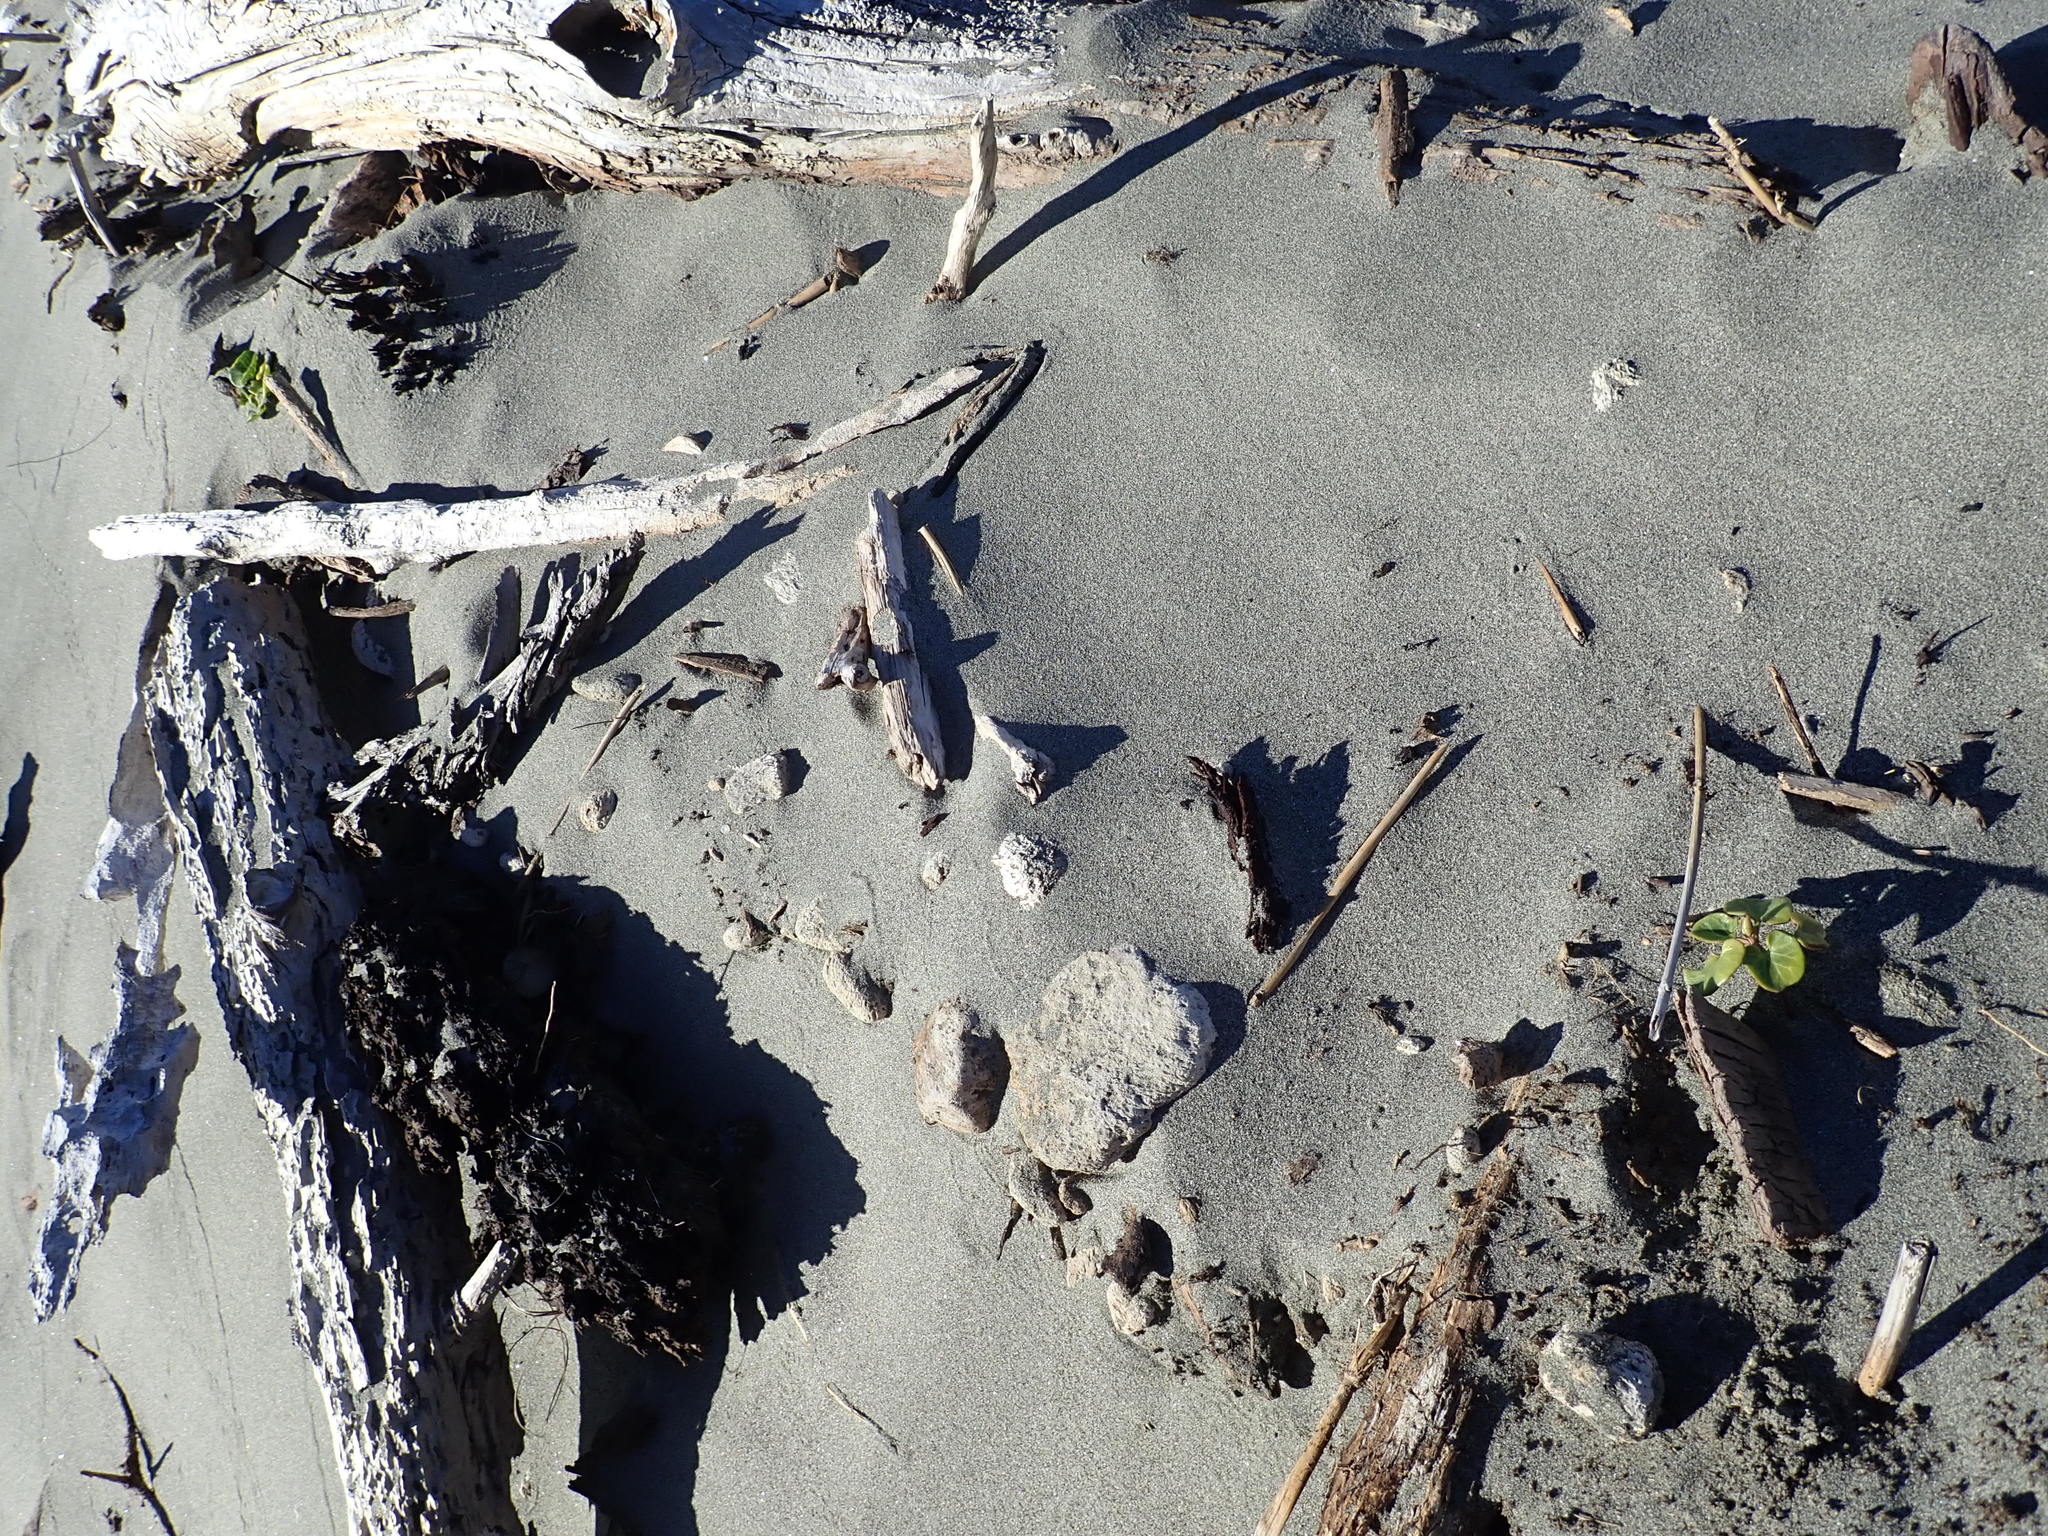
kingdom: Plantae
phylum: Tracheophyta
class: Magnoliopsida
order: Solanales
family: Convolvulaceae
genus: Calystegia
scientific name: Calystegia soldanella
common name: Sea bindweed
